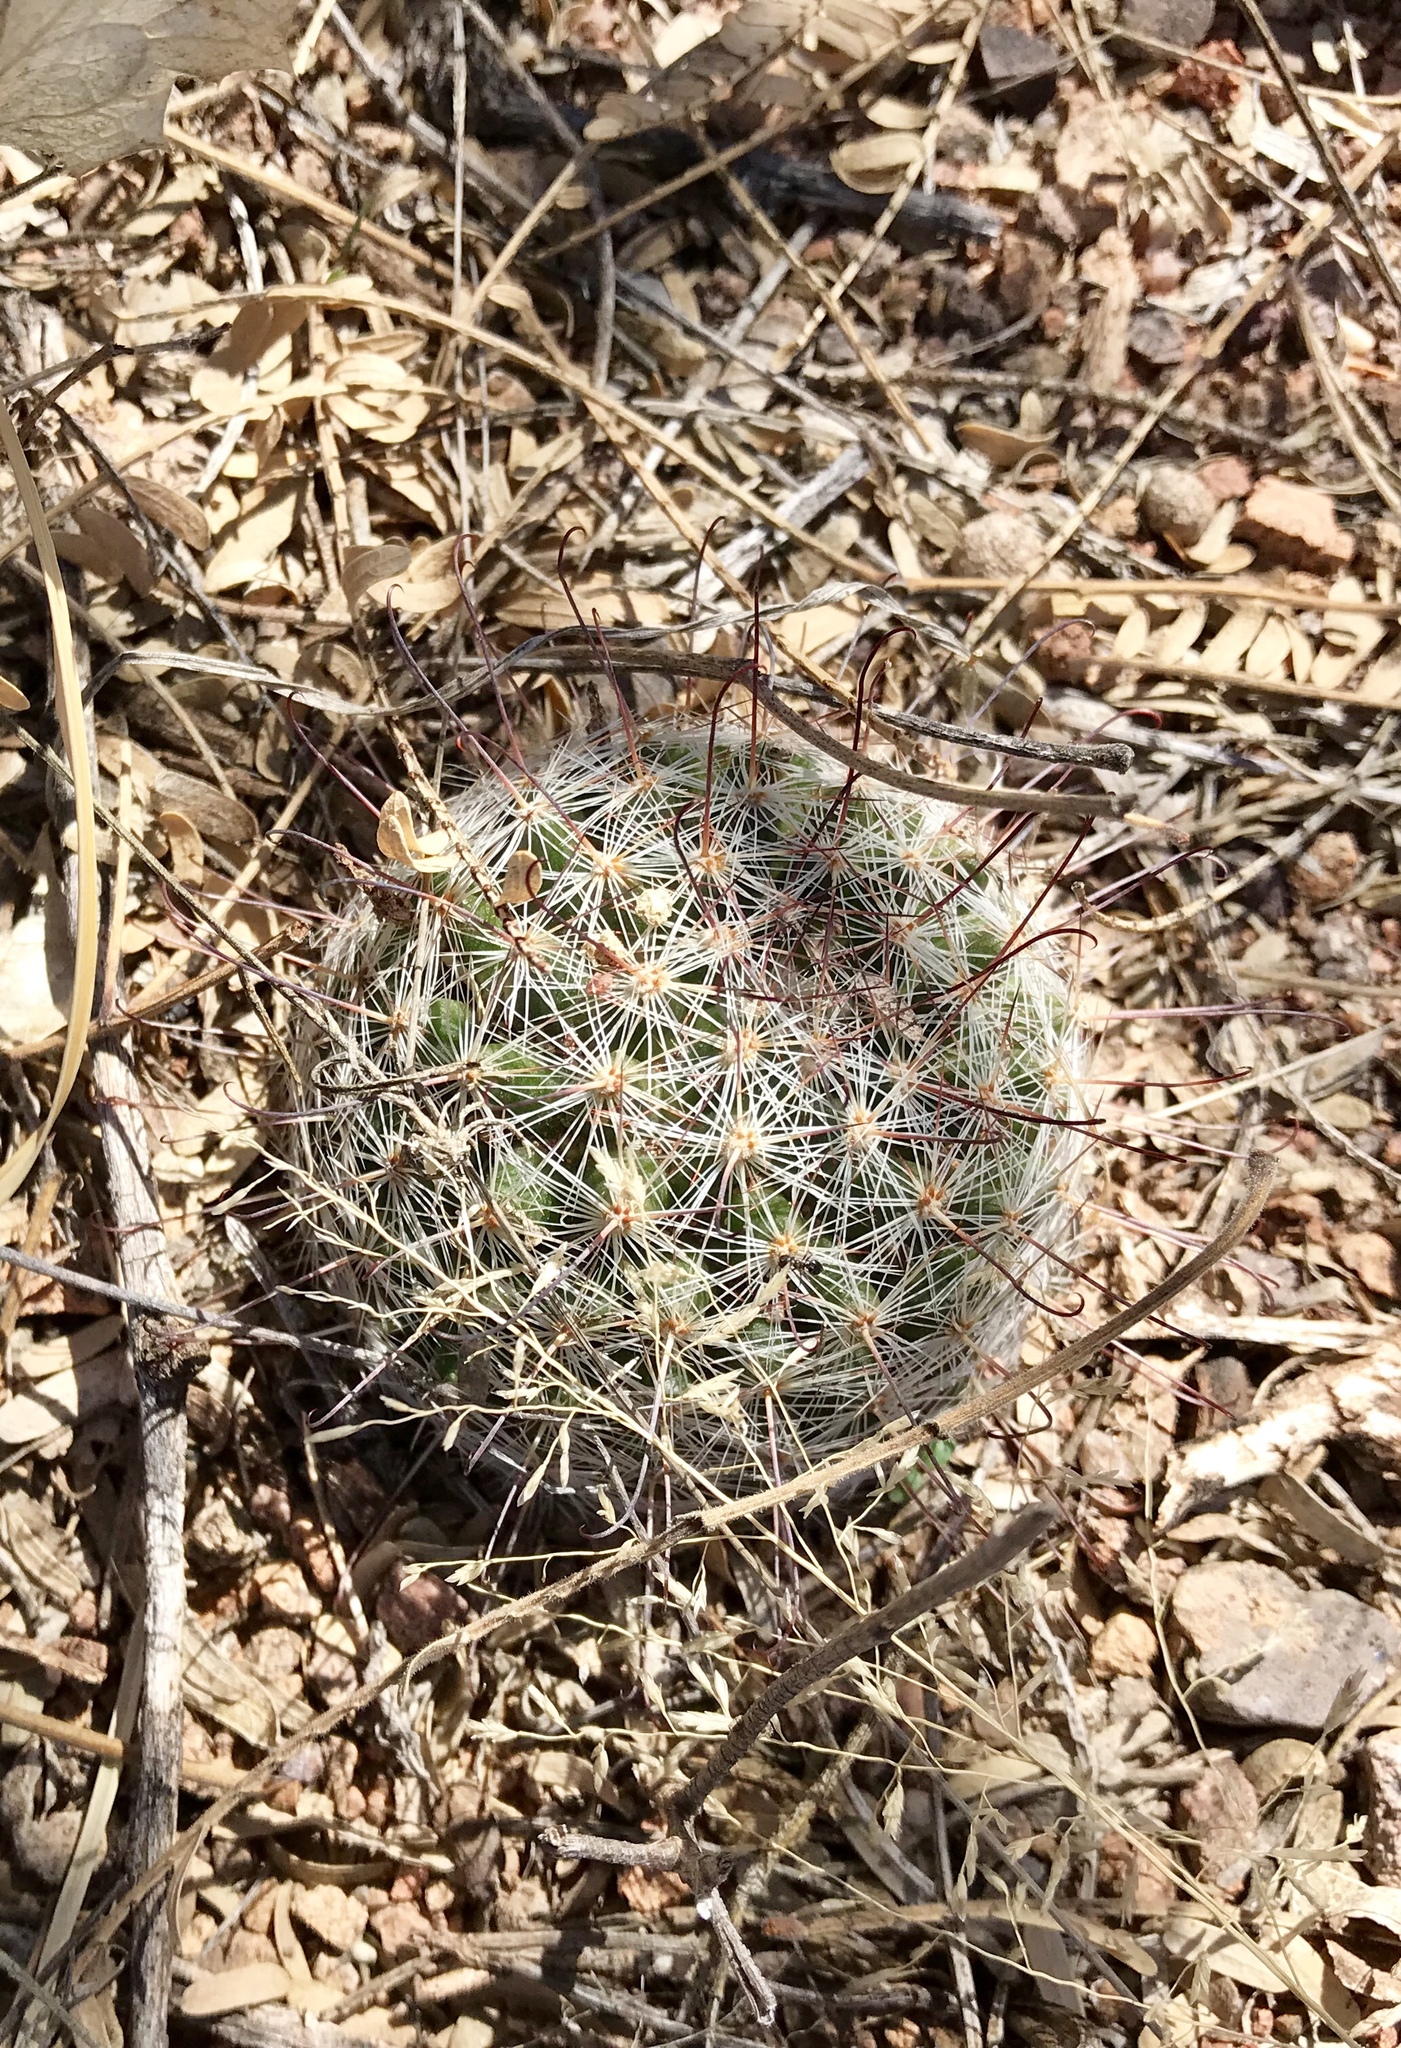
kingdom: Plantae
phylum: Tracheophyta
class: Magnoliopsida
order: Caryophyllales
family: Cactaceae
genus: Cochemiea
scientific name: Cochemiea grahamii
